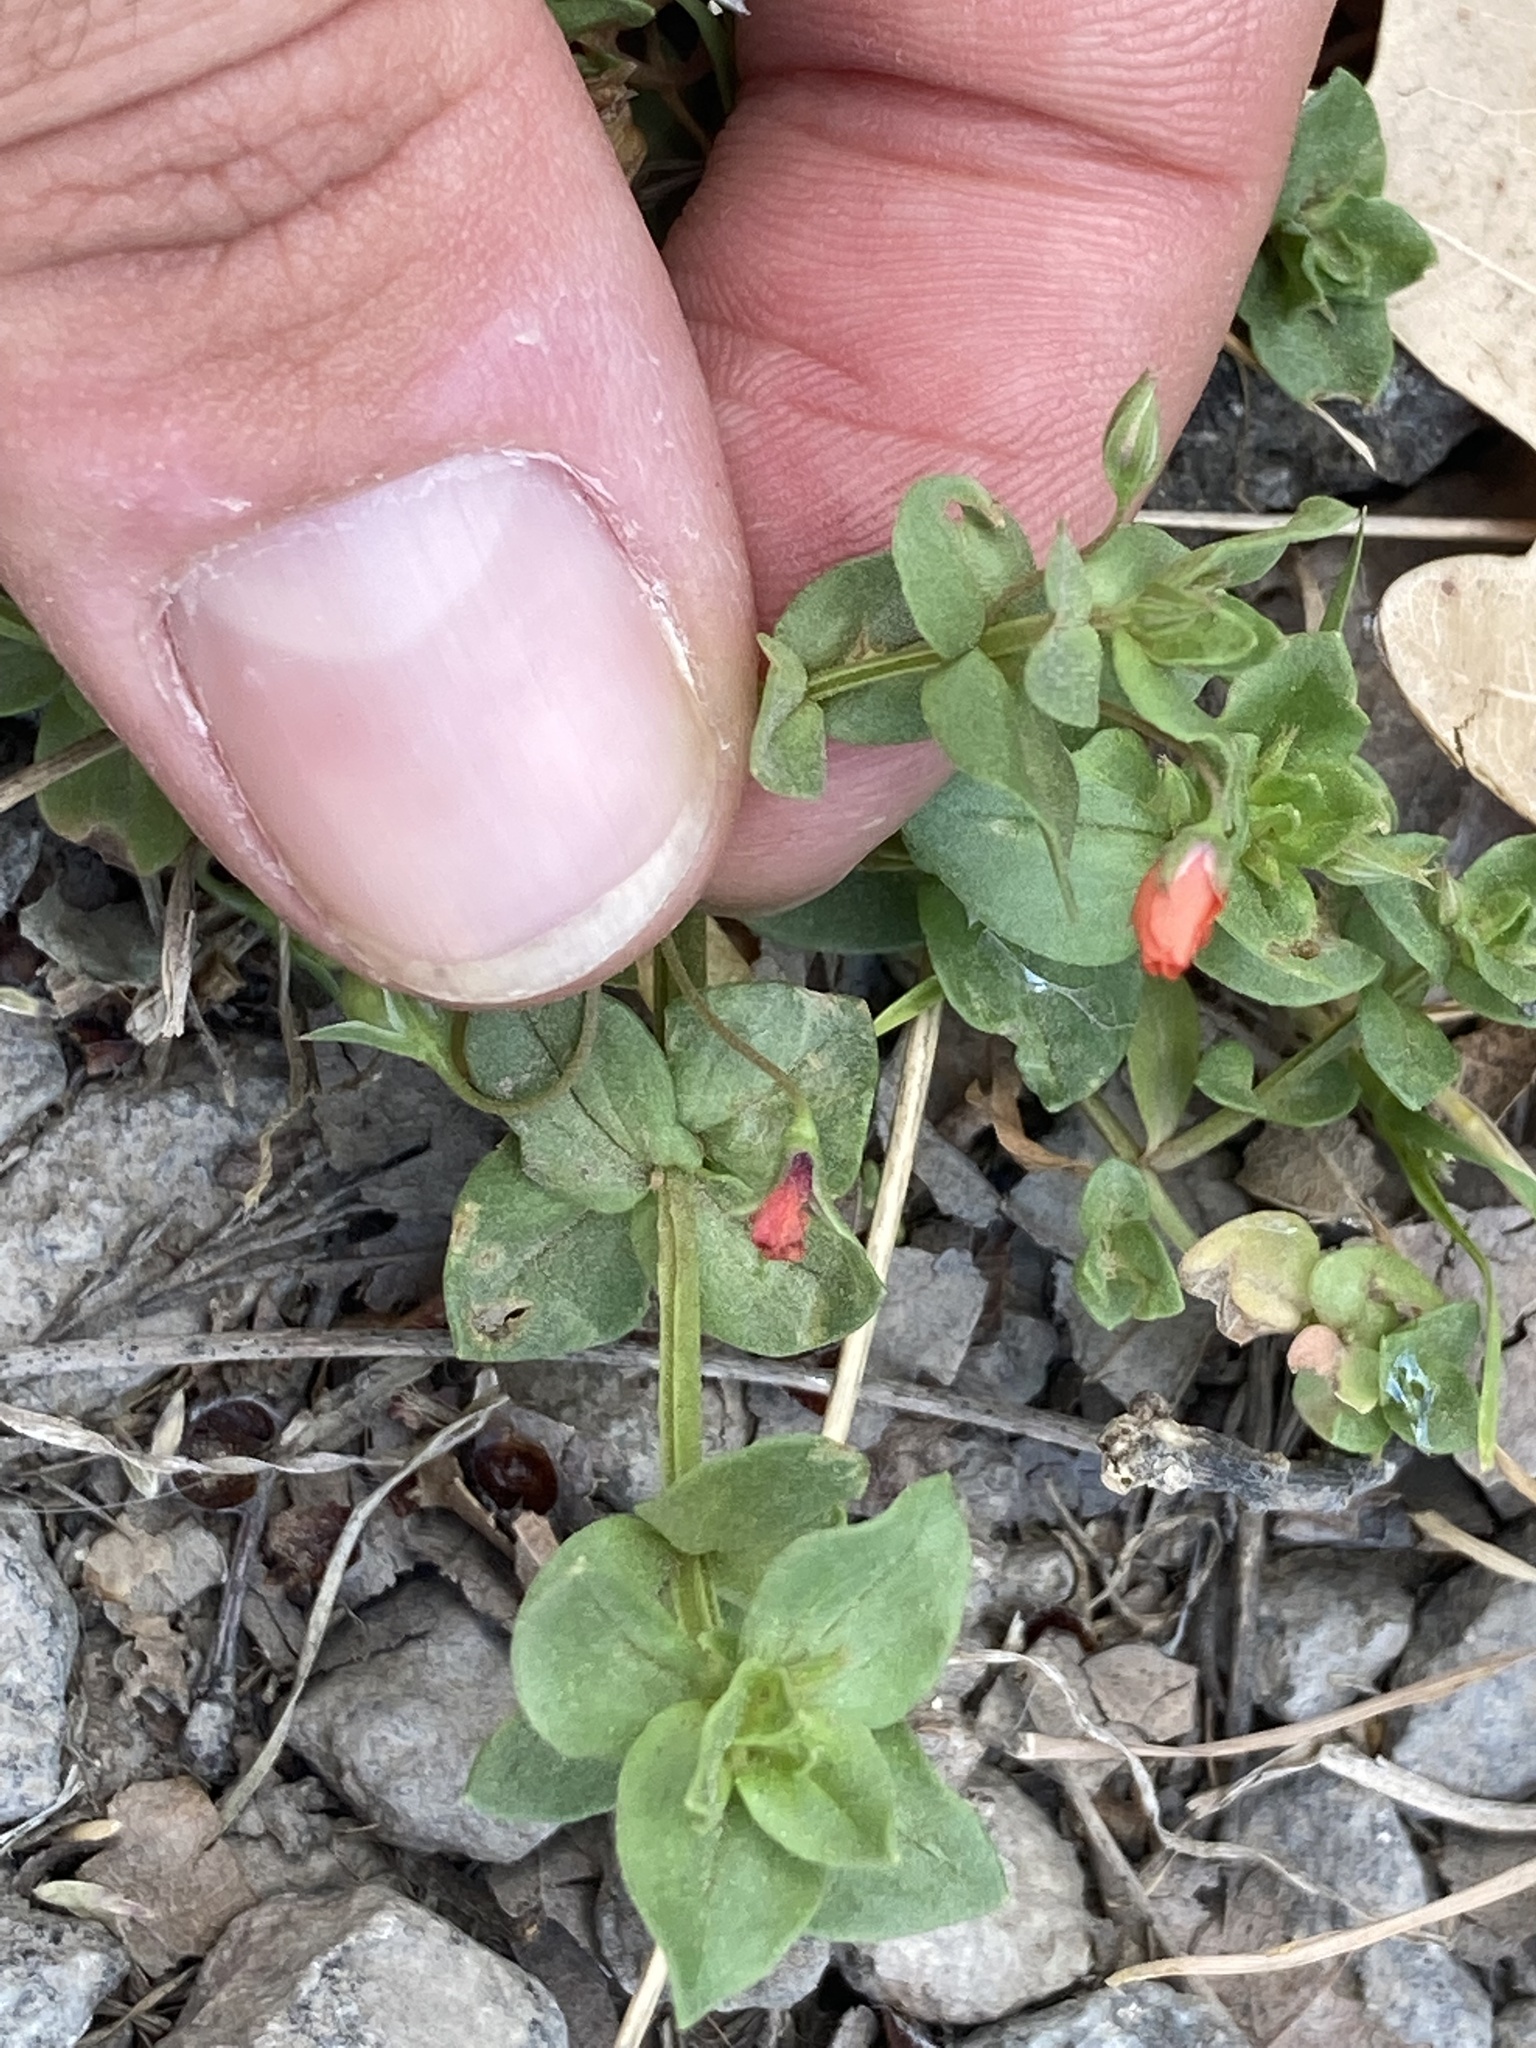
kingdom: Plantae
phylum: Tracheophyta
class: Magnoliopsida
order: Ericales
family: Primulaceae
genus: Lysimachia
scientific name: Lysimachia arvensis
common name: Scarlet pimpernel
